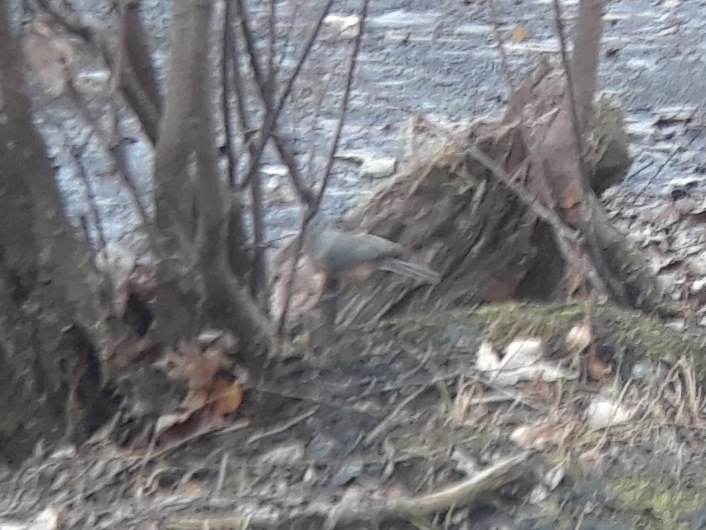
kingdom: Animalia
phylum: Chordata
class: Aves
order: Passeriformes
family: Paridae
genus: Baeolophus
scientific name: Baeolophus bicolor
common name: Tufted titmouse
